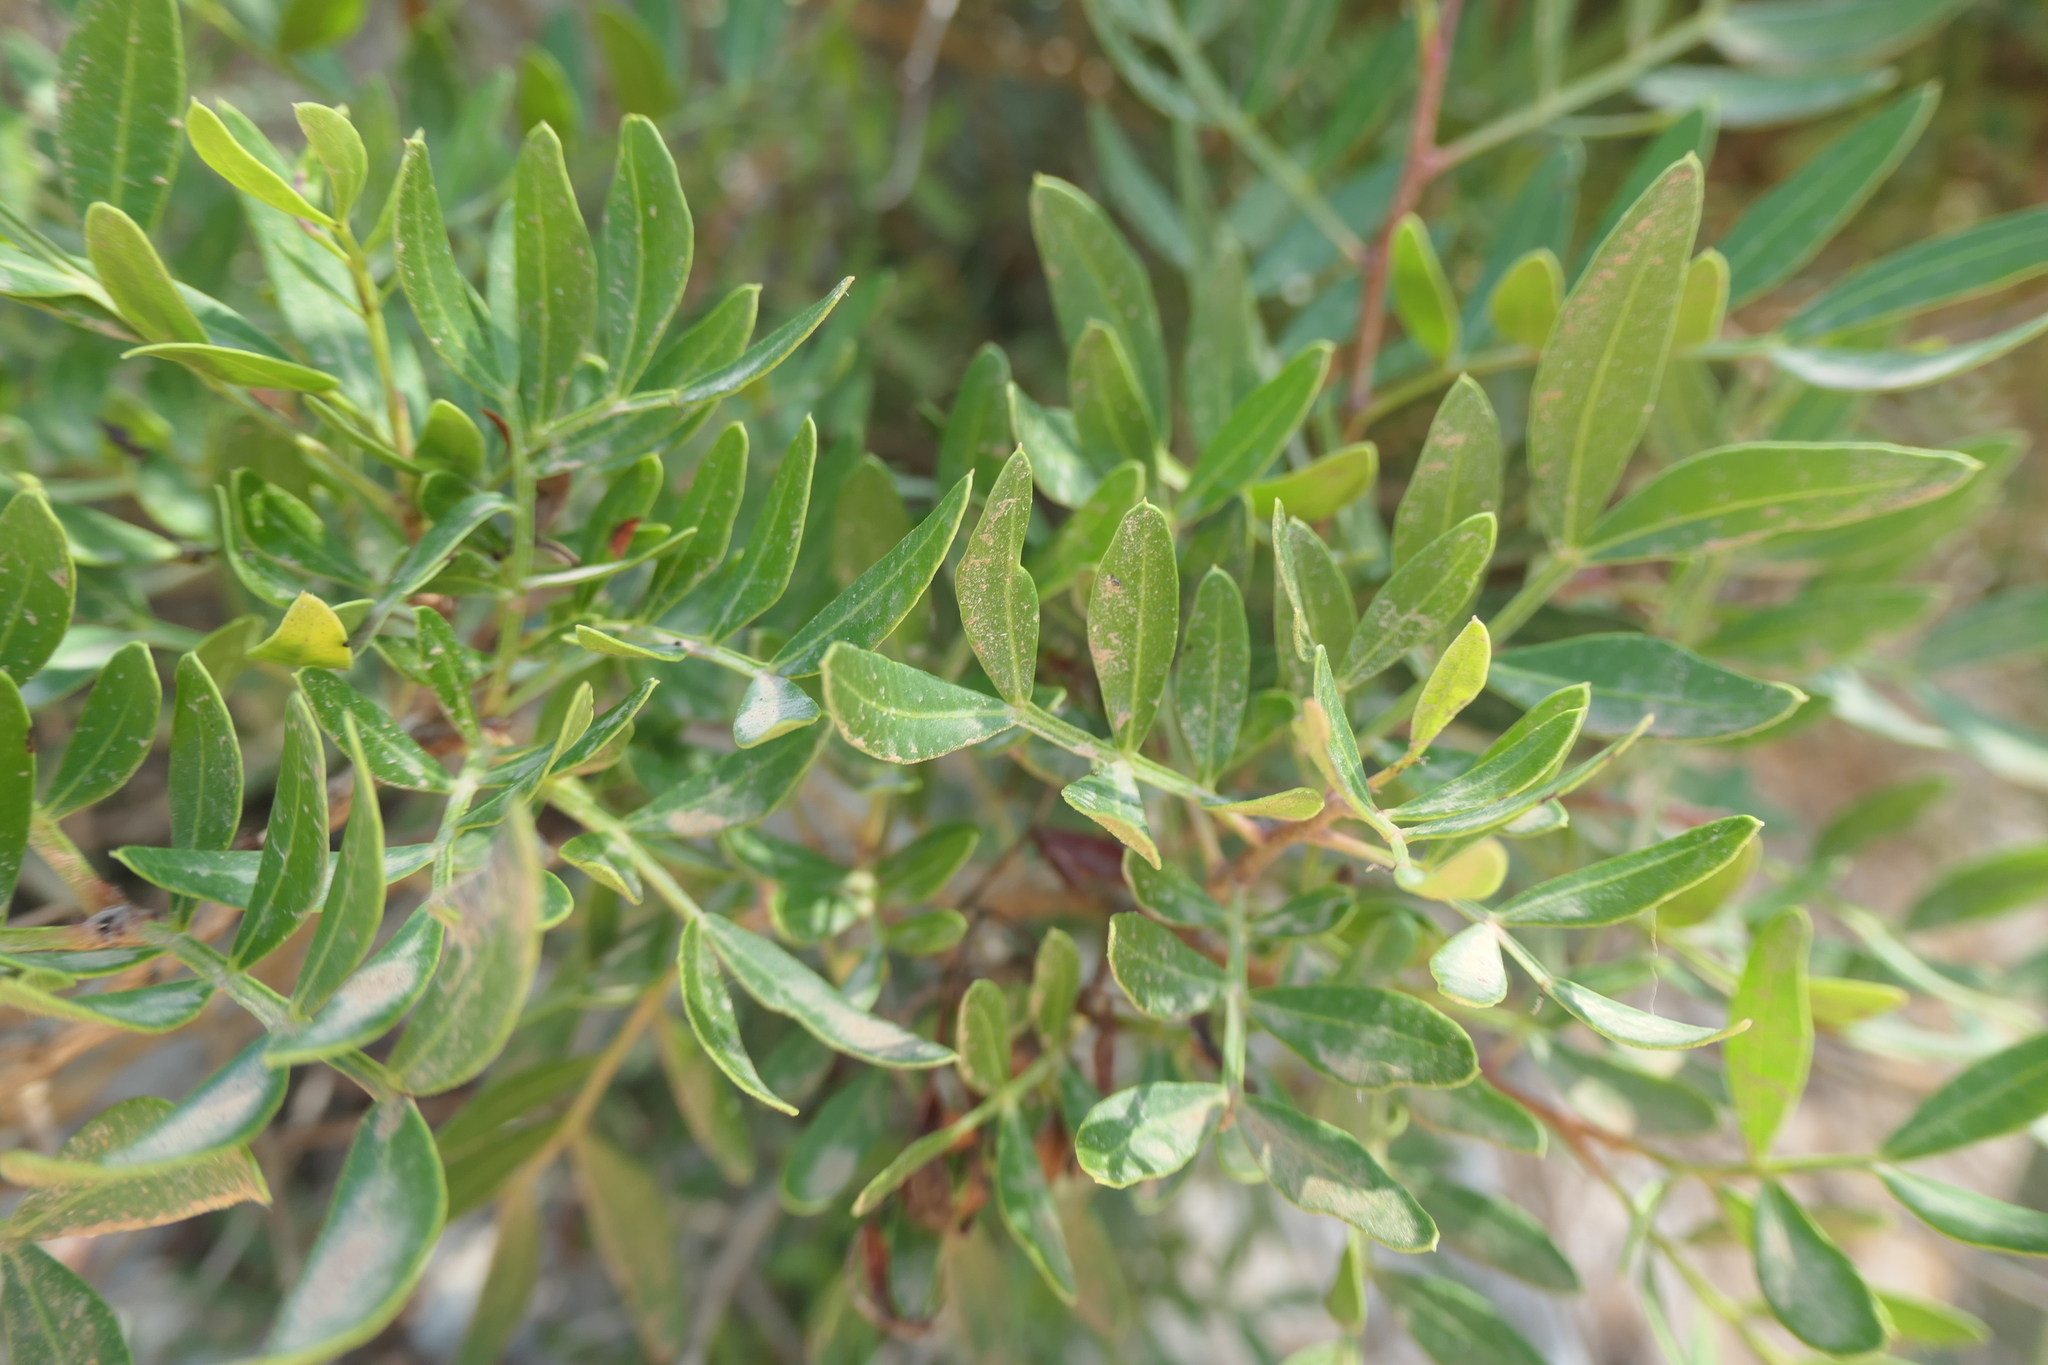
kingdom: Plantae
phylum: Tracheophyta
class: Magnoliopsida
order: Sapindales
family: Anacardiaceae
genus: Pistacia
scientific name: Pistacia lentiscus
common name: Lentisk
